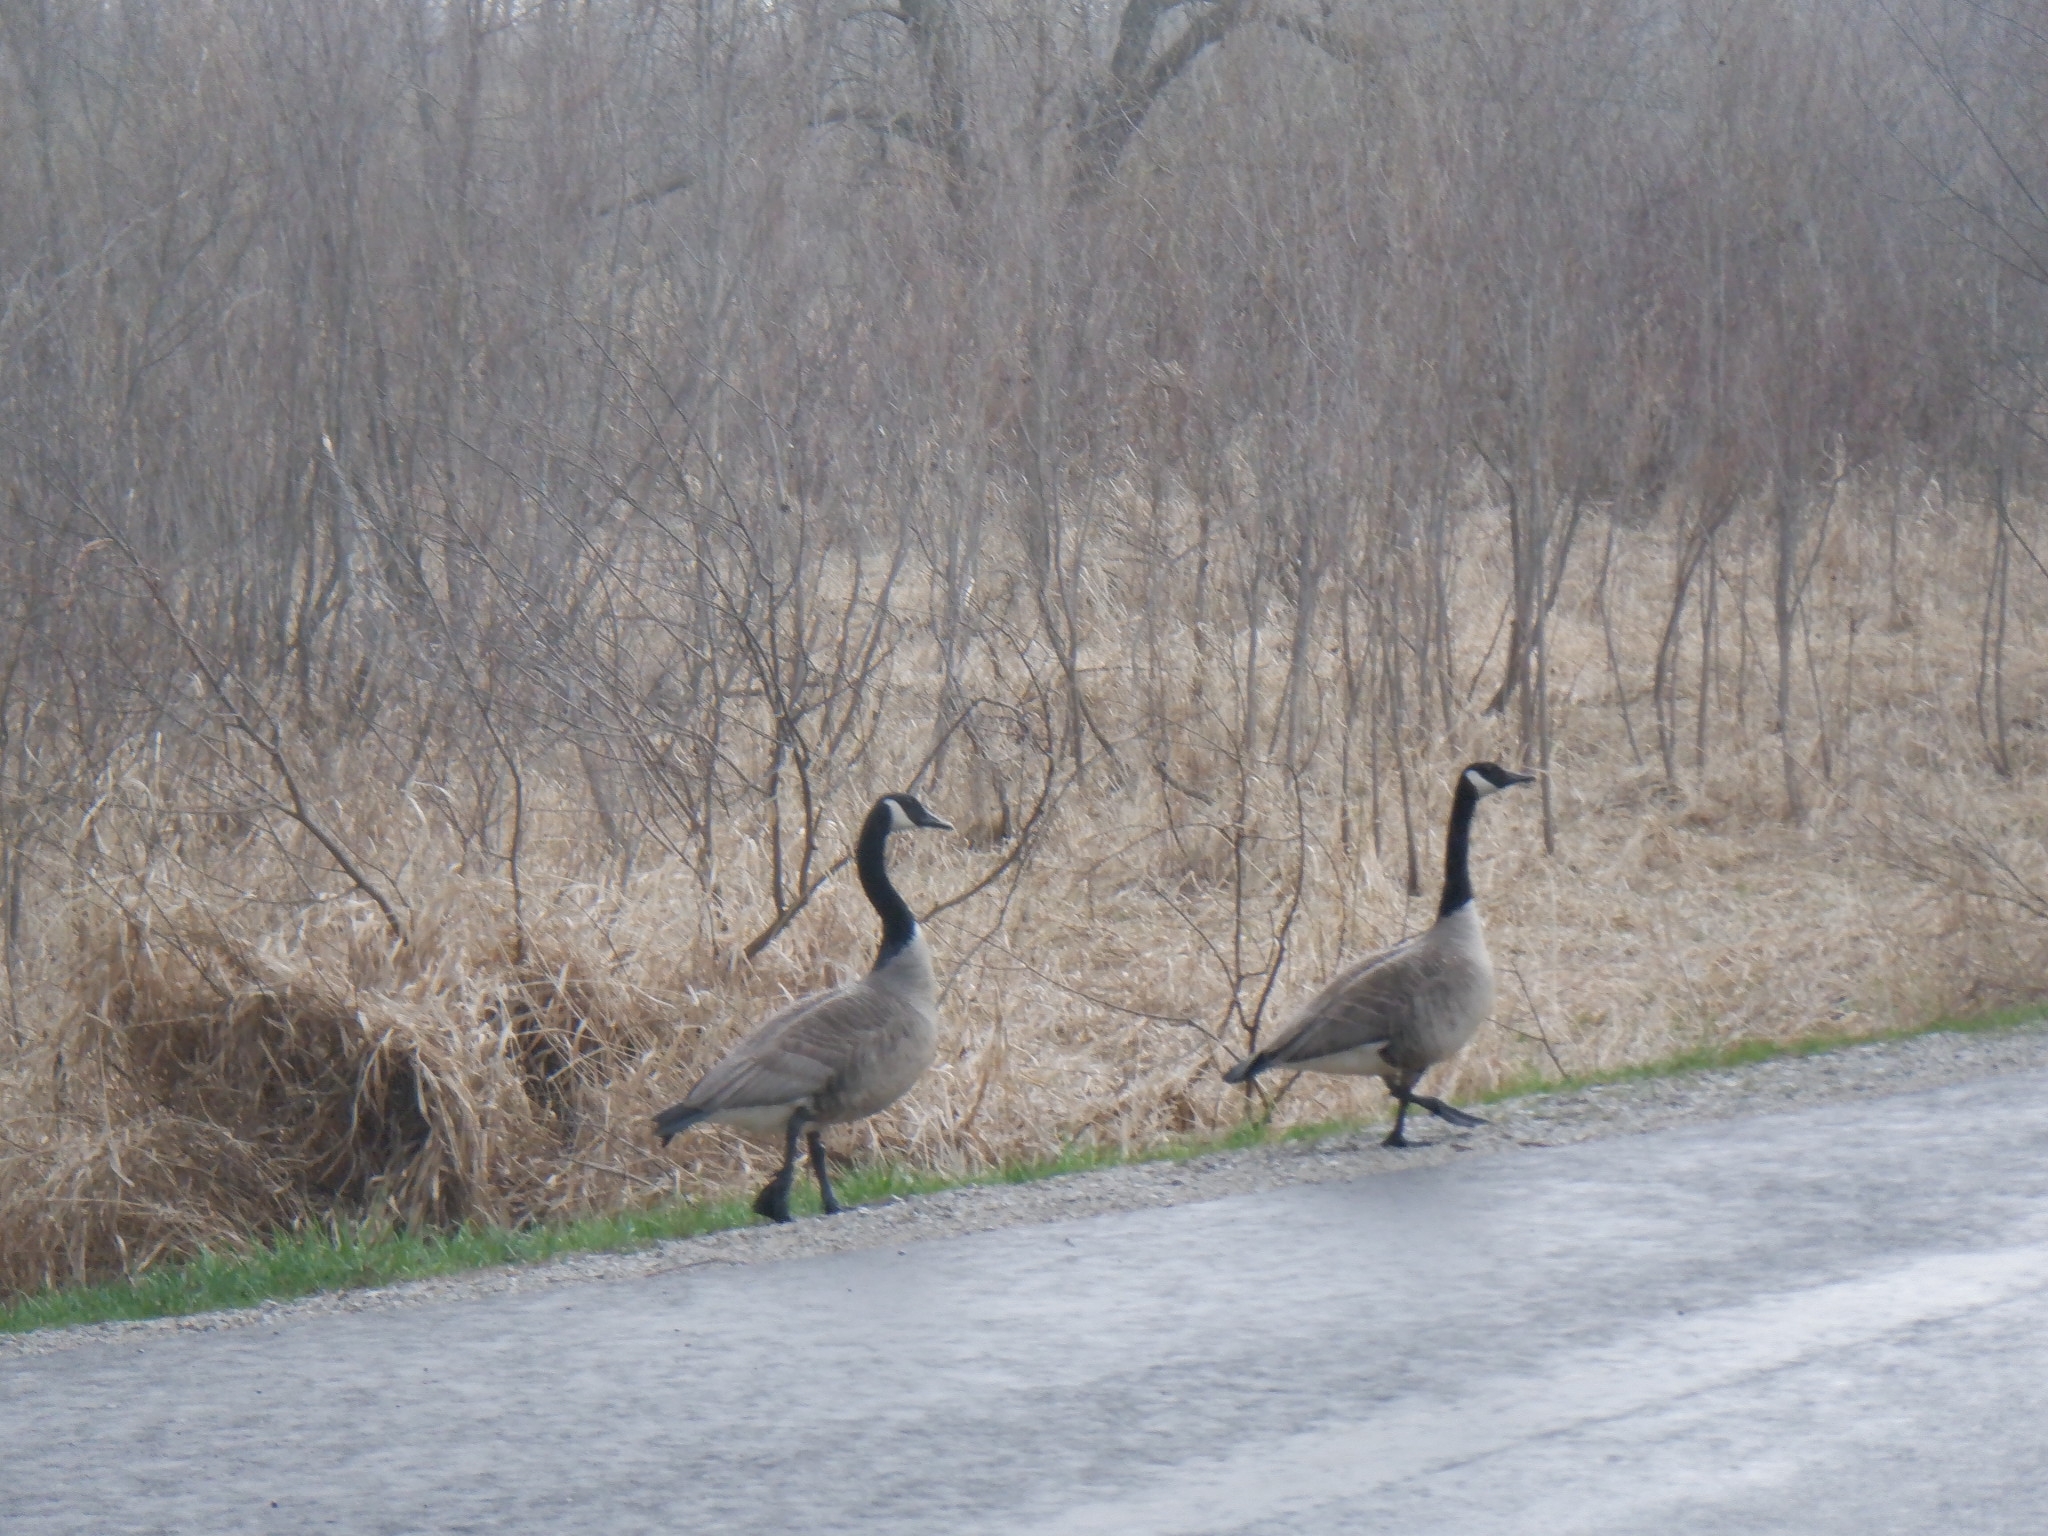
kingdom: Animalia
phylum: Chordata
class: Aves
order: Anseriformes
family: Anatidae
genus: Branta
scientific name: Branta canadensis
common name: Canada goose
